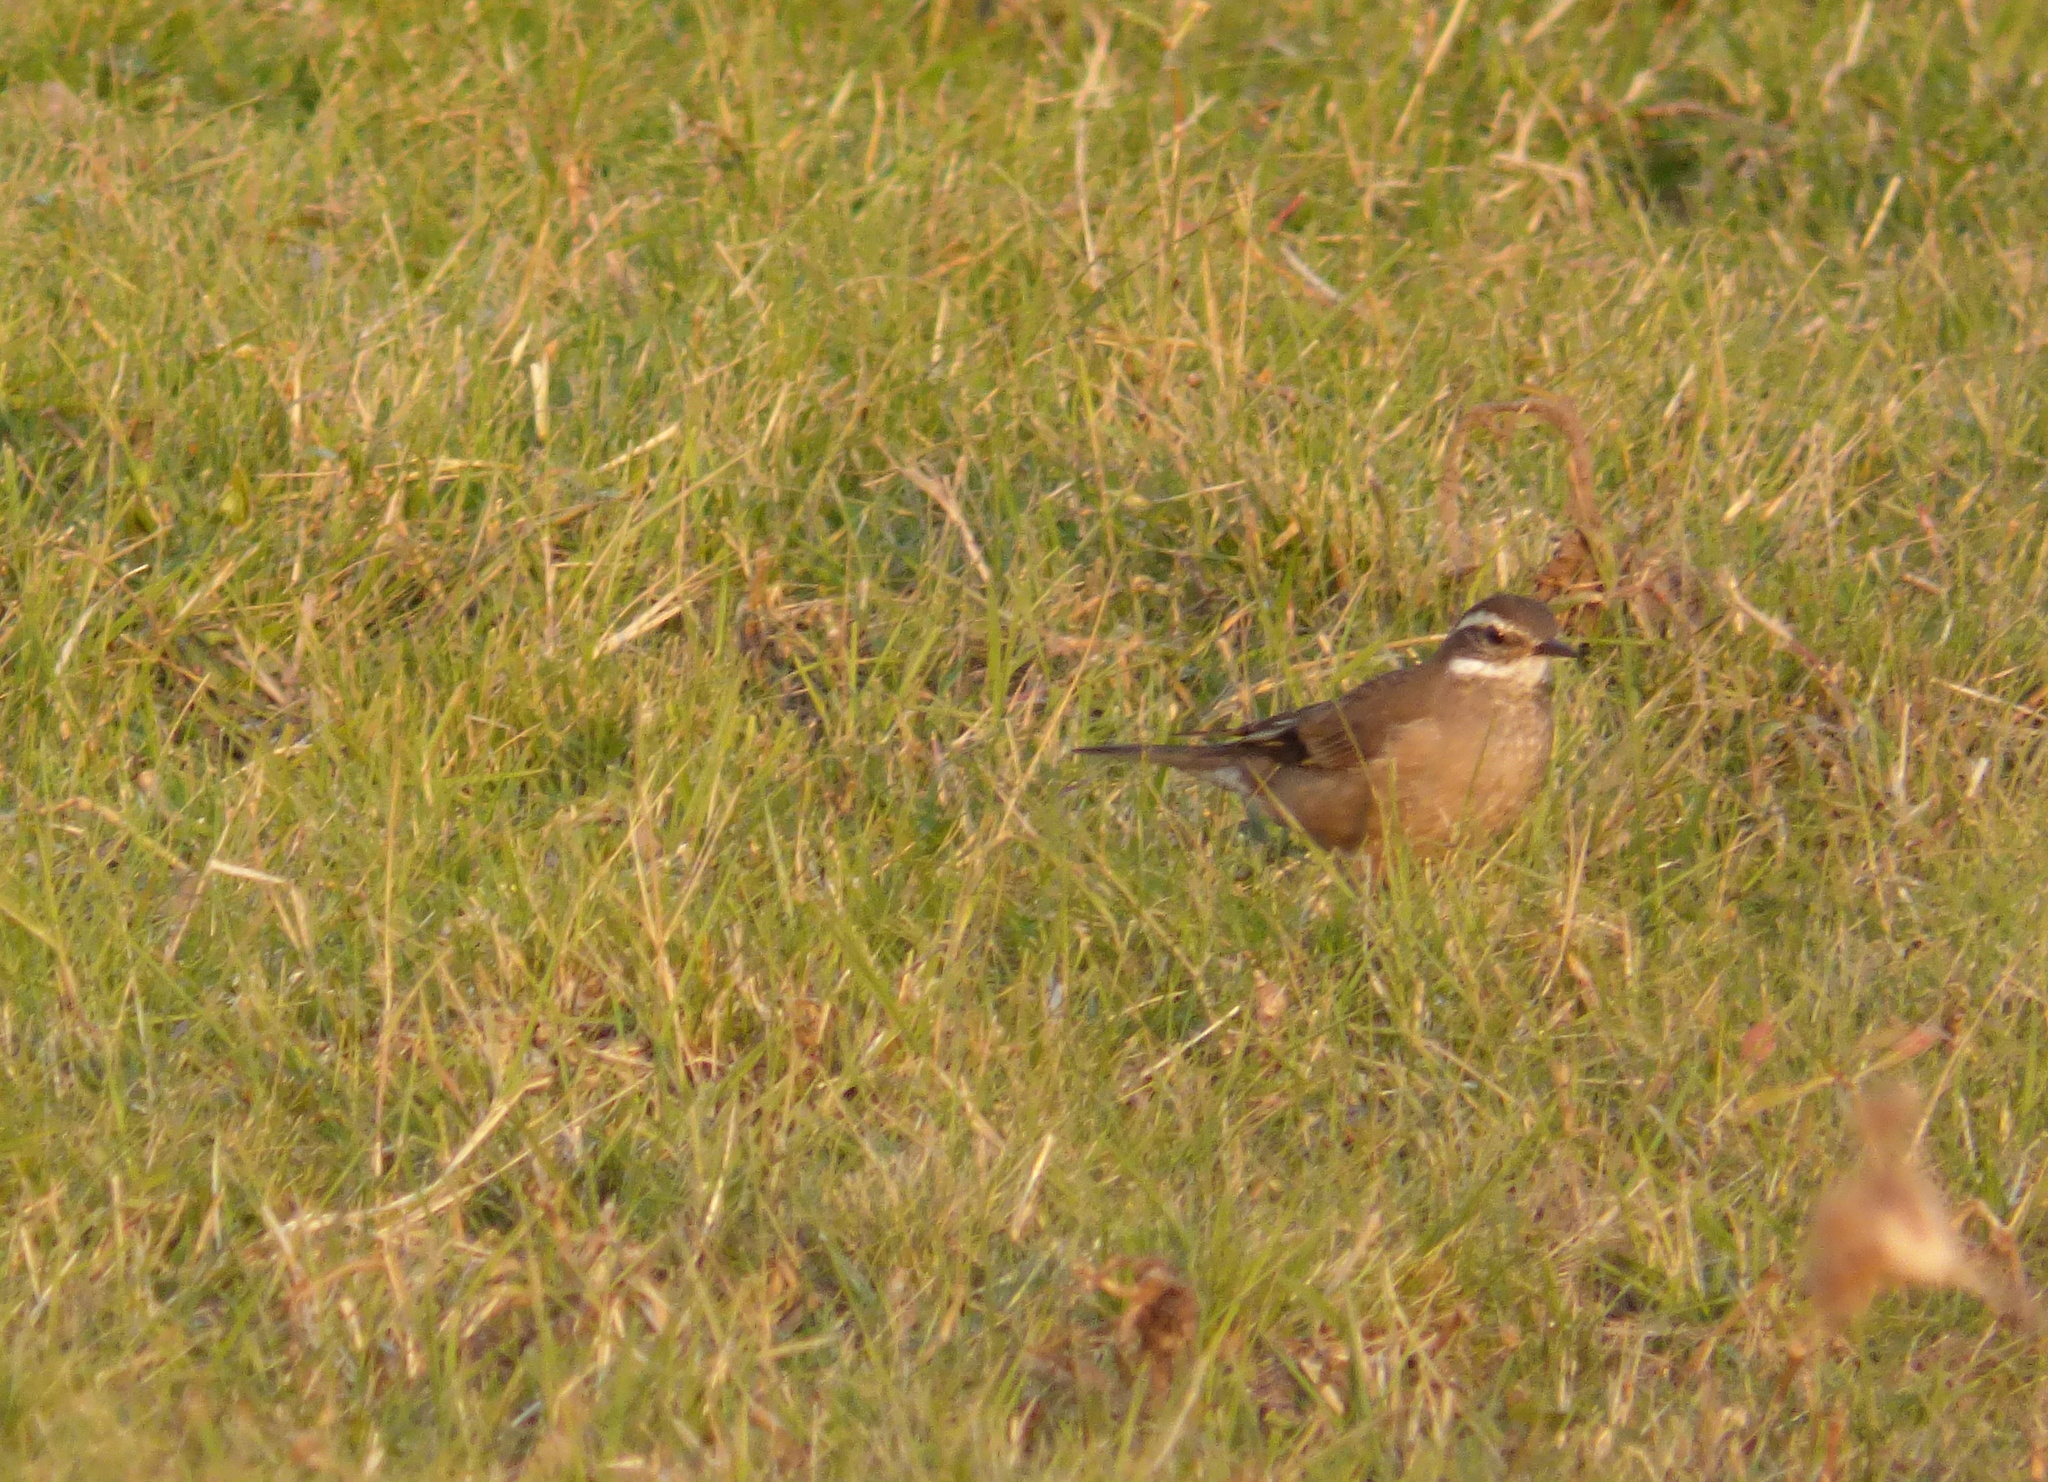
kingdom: Animalia
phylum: Chordata
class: Aves
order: Passeriformes
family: Furnariidae
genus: Cinclodes
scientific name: Cinclodes fuscus
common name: Buff-winged cinclodes
